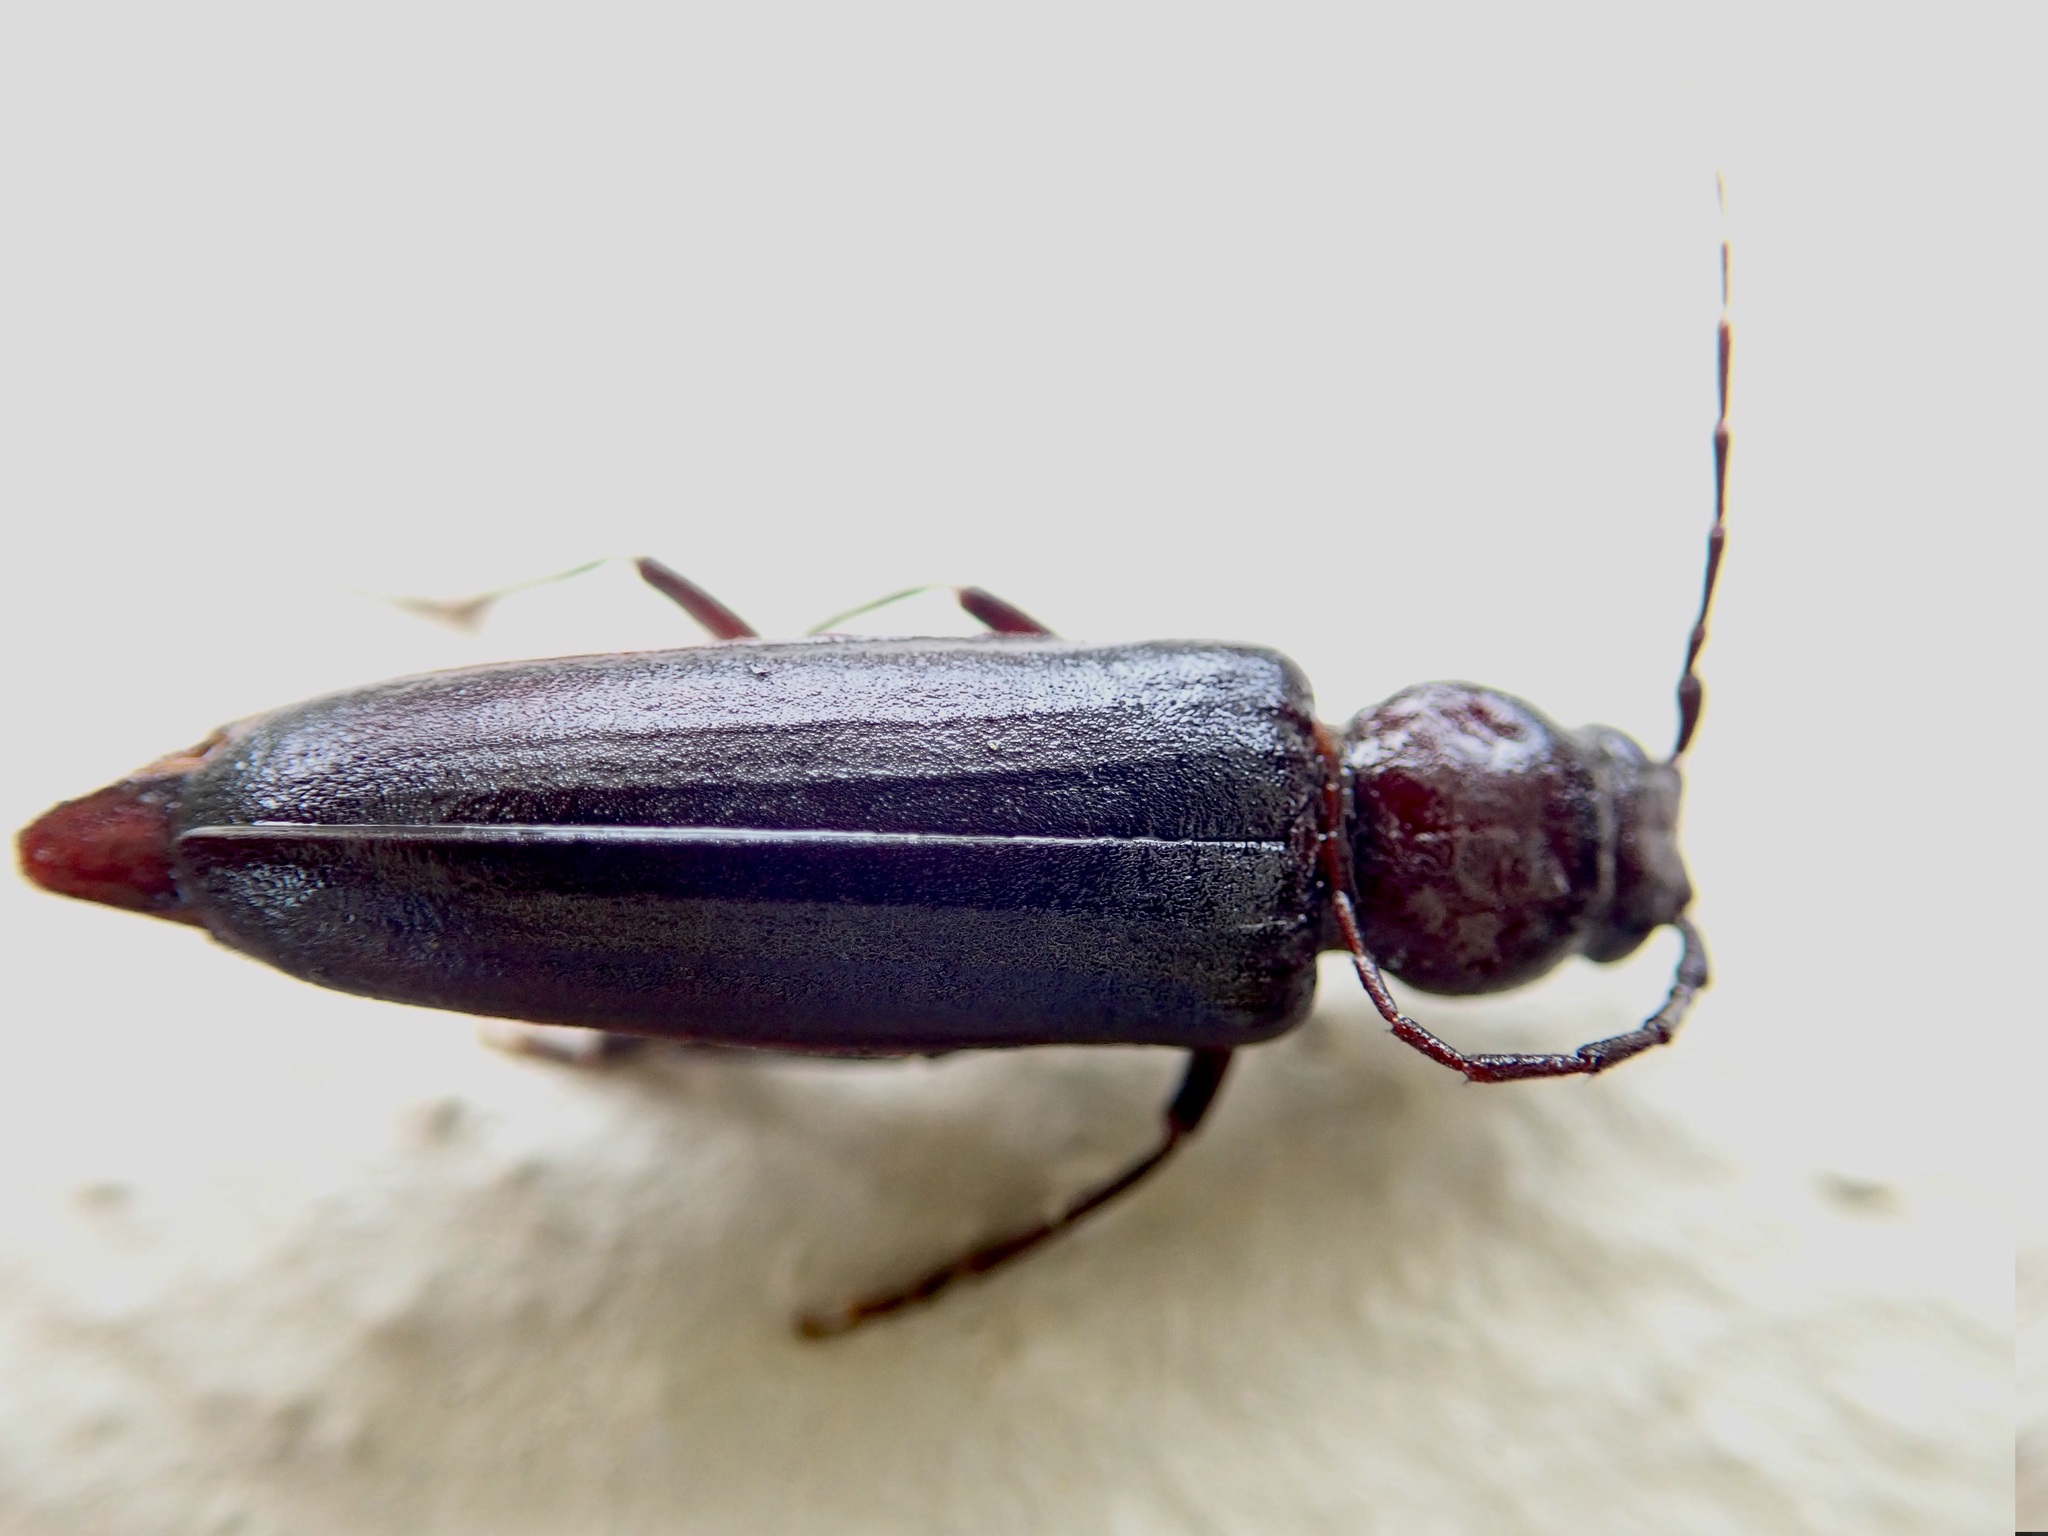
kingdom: Animalia
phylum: Arthropoda
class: Insecta
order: Coleoptera
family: Cerambycidae
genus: Arhopalus
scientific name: Arhopalus ferus
